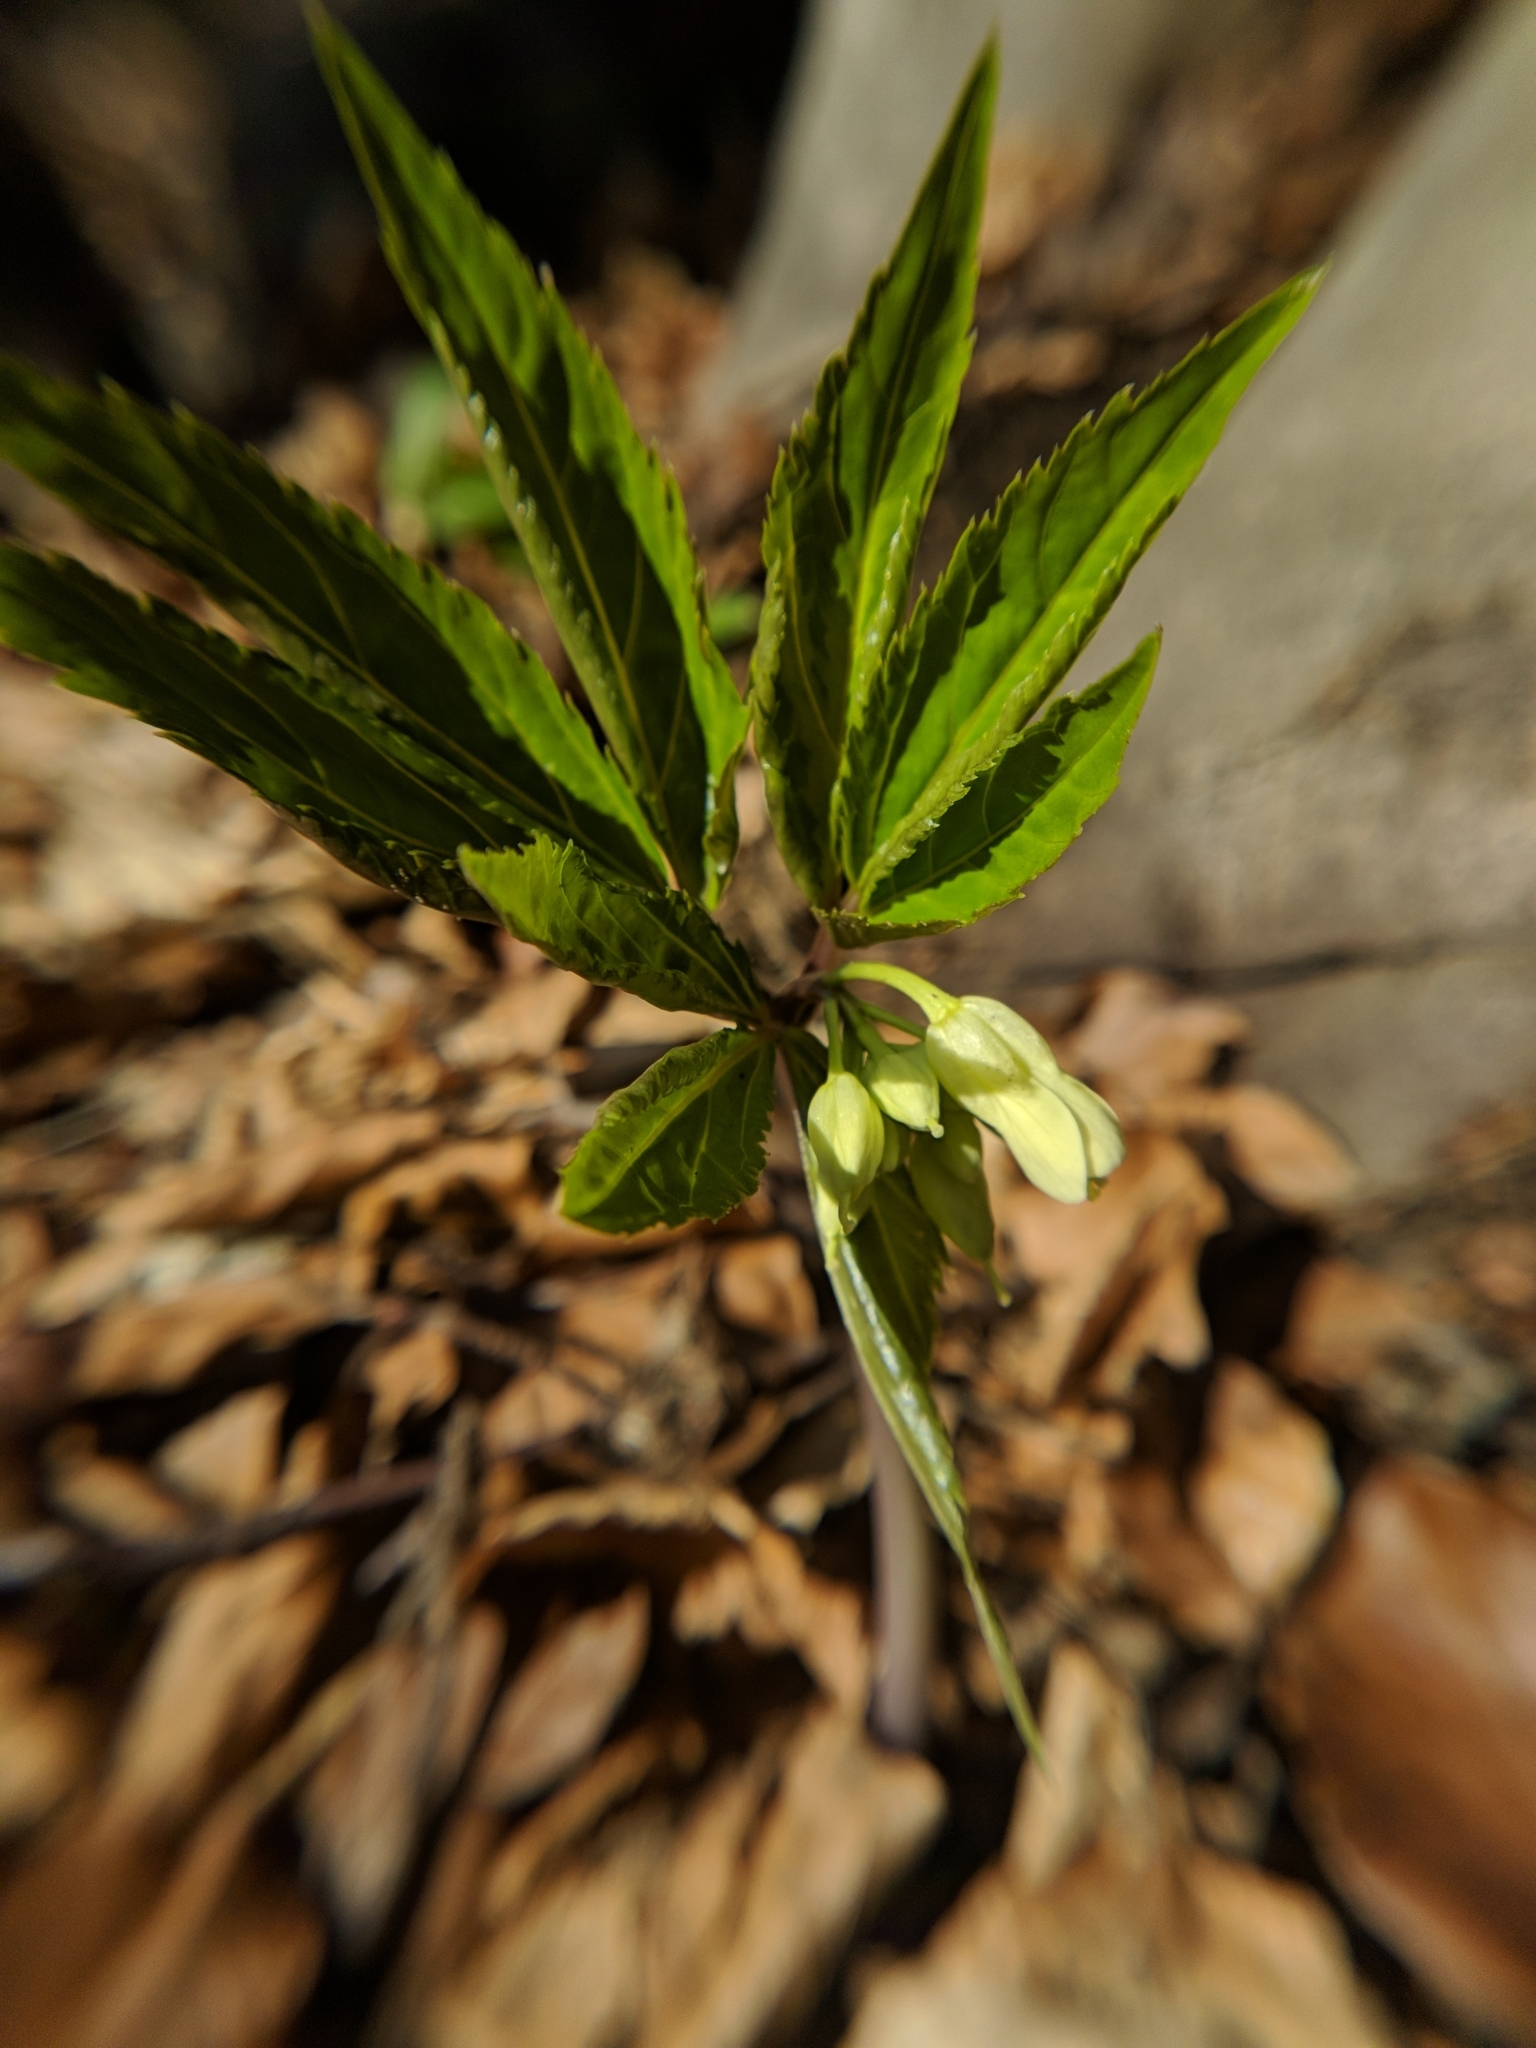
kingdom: Plantae
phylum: Tracheophyta
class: Magnoliopsida
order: Brassicales
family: Brassicaceae
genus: Cardamine
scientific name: Cardamine enneaphyllos
